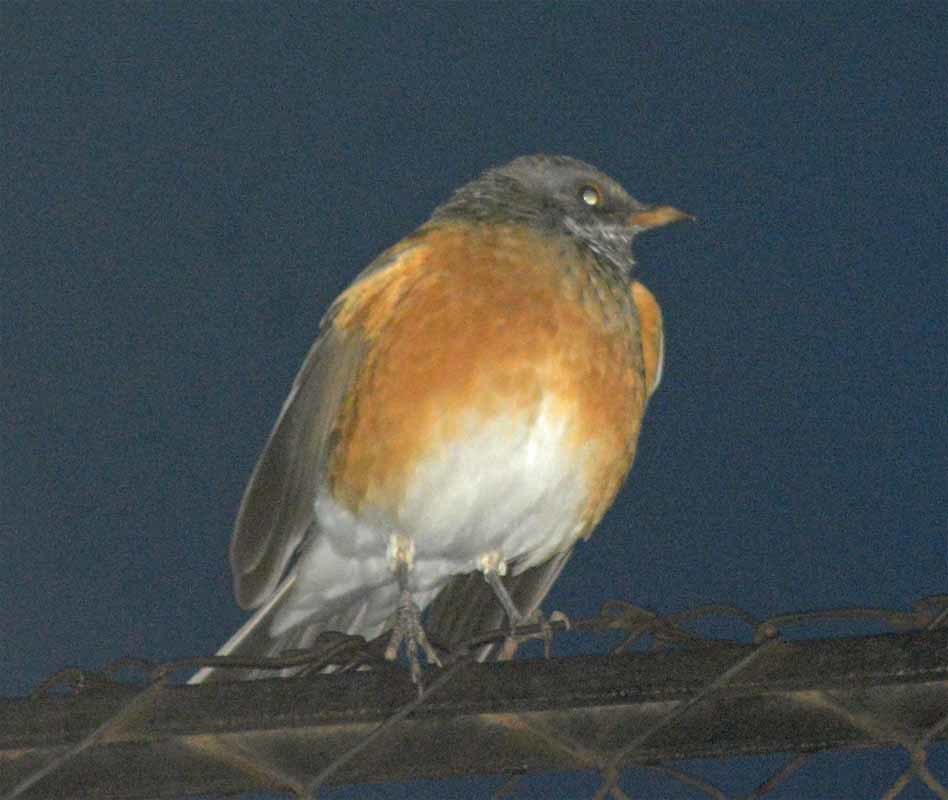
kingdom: Animalia
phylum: Chordata
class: Aves
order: Passeriformes
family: Turdidae
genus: Turdus
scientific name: Turdus rufopalliatus
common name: Rufous-backed robin
